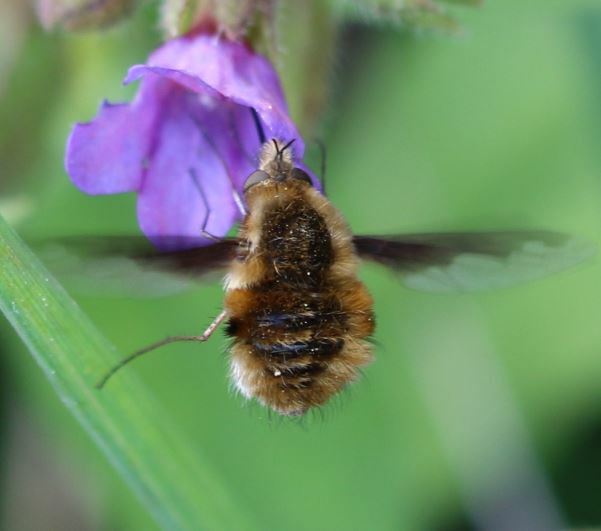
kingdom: Animalia
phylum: Arthropoda
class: Insecta
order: Diptera
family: Bombyliidae
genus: Bombylius
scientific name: Bombylius major
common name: Bee fly
